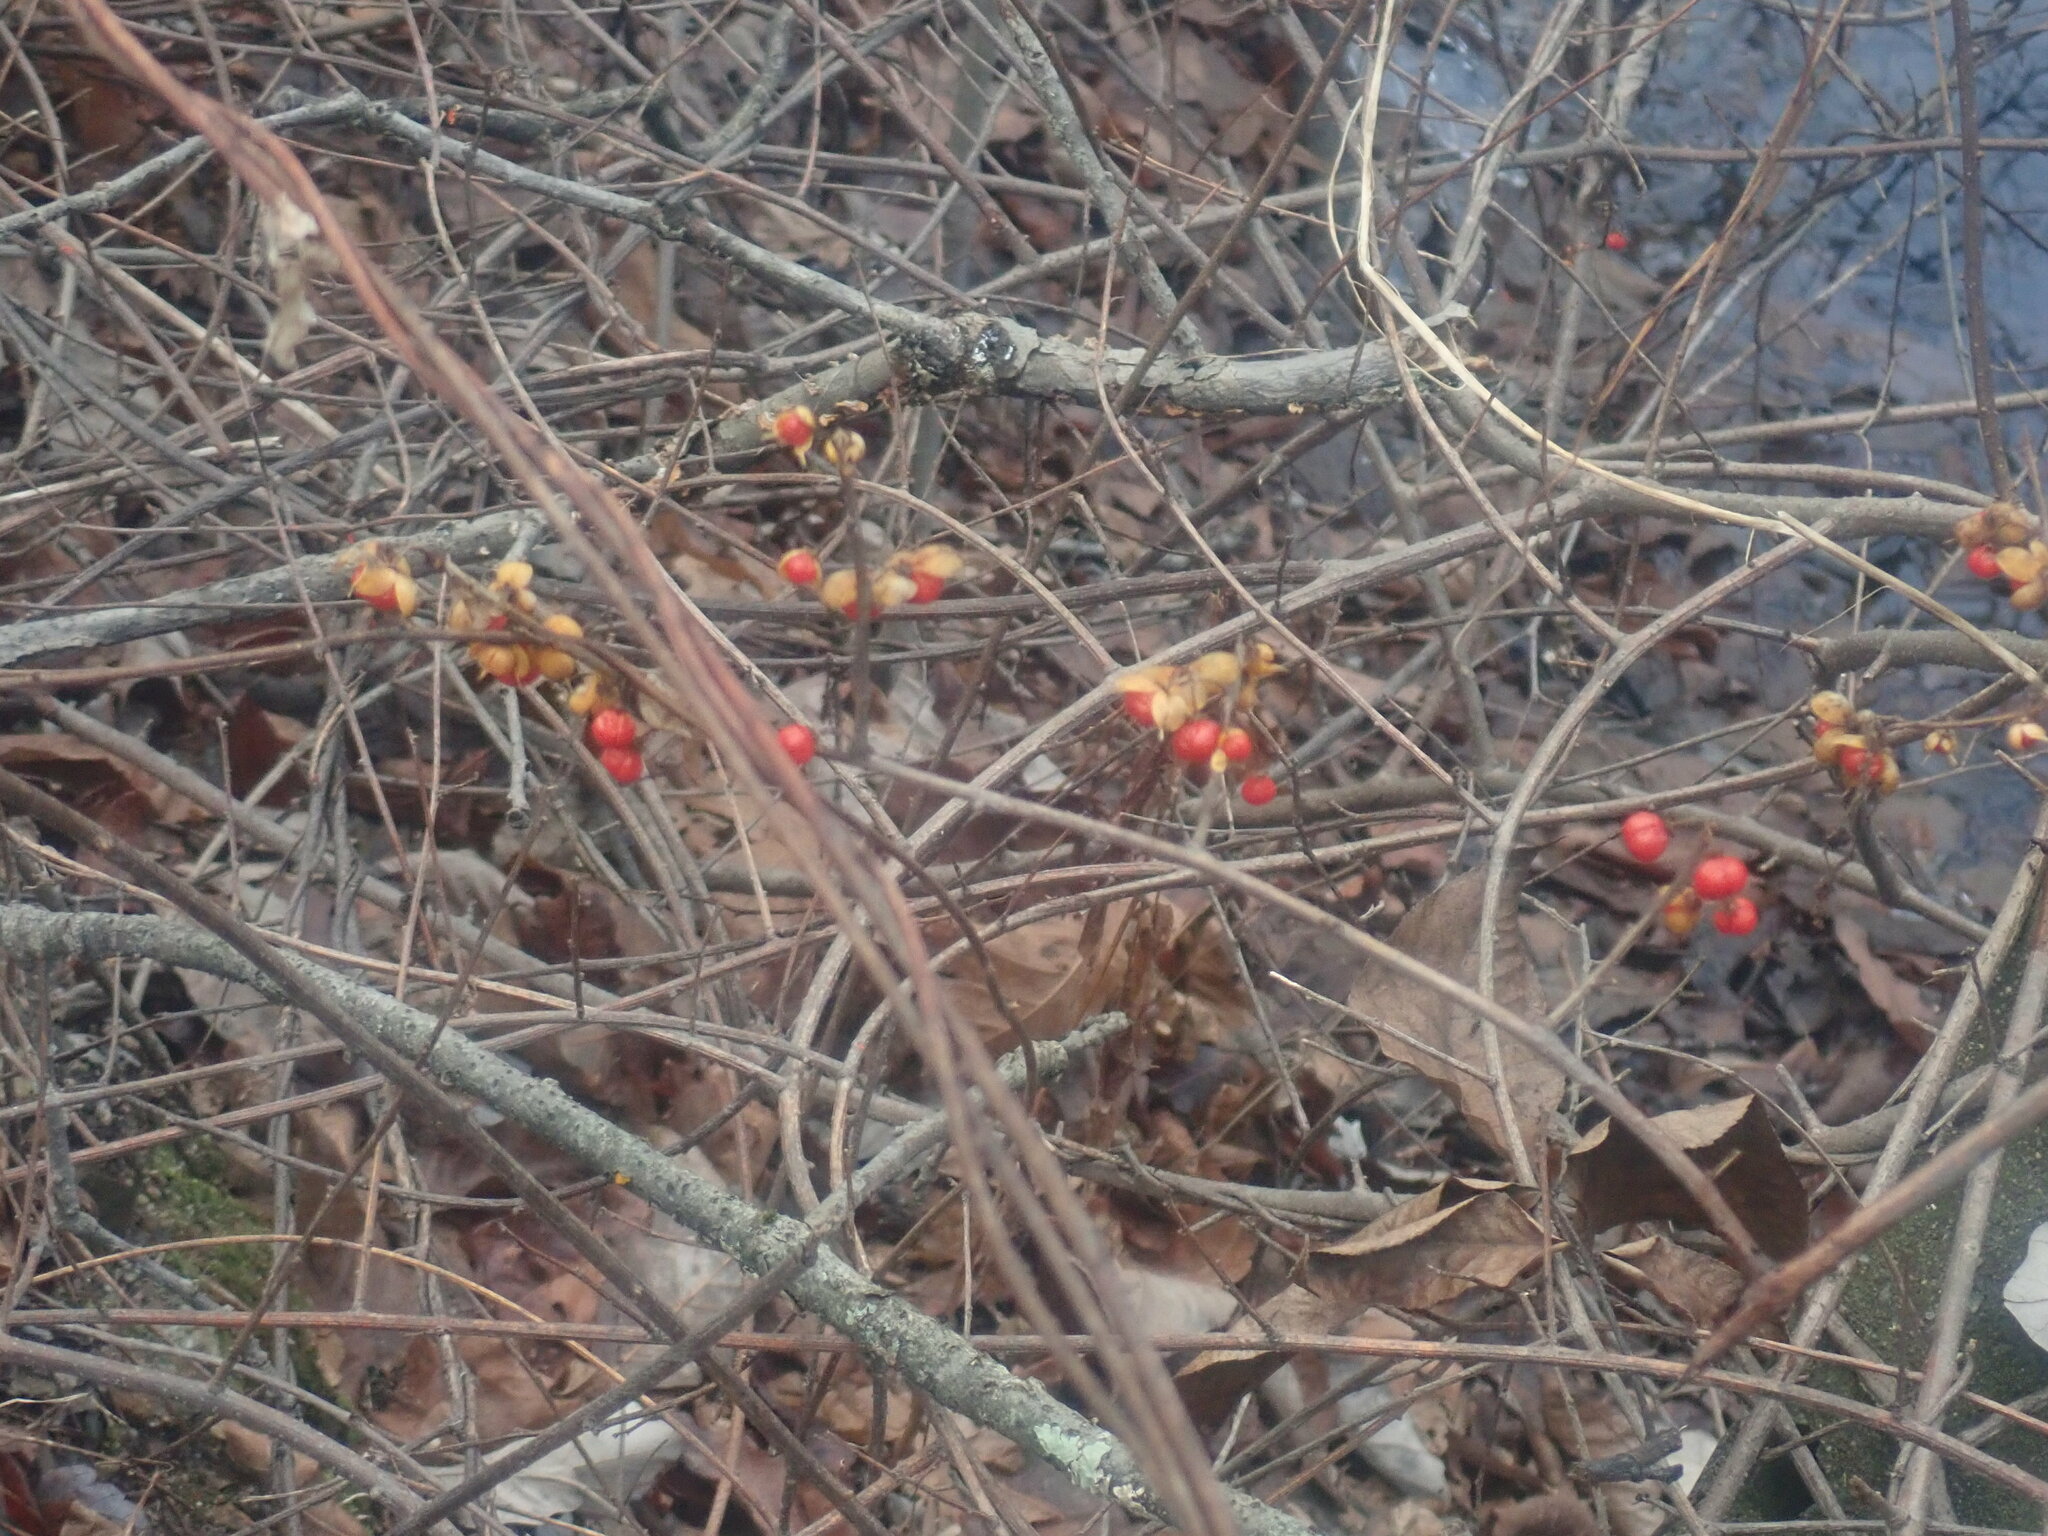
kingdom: Plantae
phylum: Tracheophyta
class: Magnoliopsida
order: Celastrales
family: Celastraceae
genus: Celastrus
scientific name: Celastrus orbiculatus
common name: Oriental bittersweet
